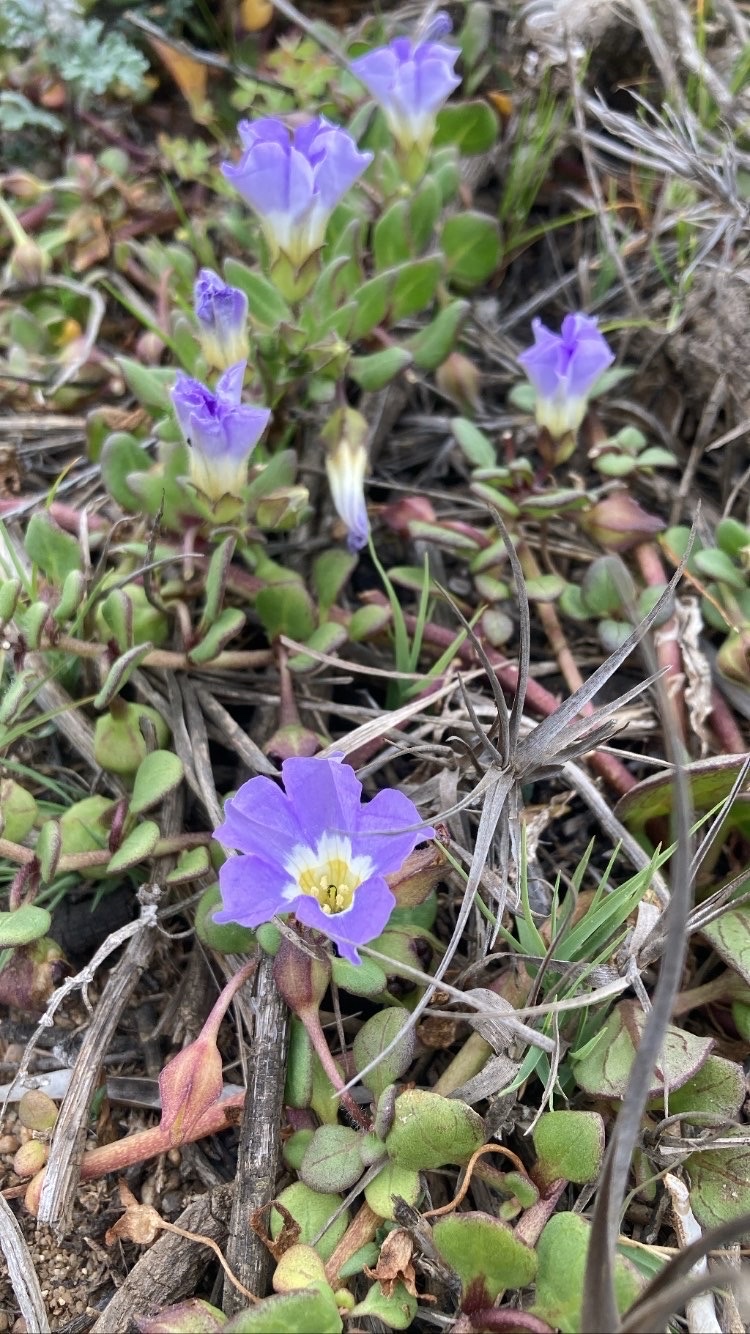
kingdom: Plantae
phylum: Tracheophyta
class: Magnoliopsida
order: Solanales
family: Solanaceae
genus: Nolana
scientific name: Nolana paradoxa
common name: Chilean-bellflower
